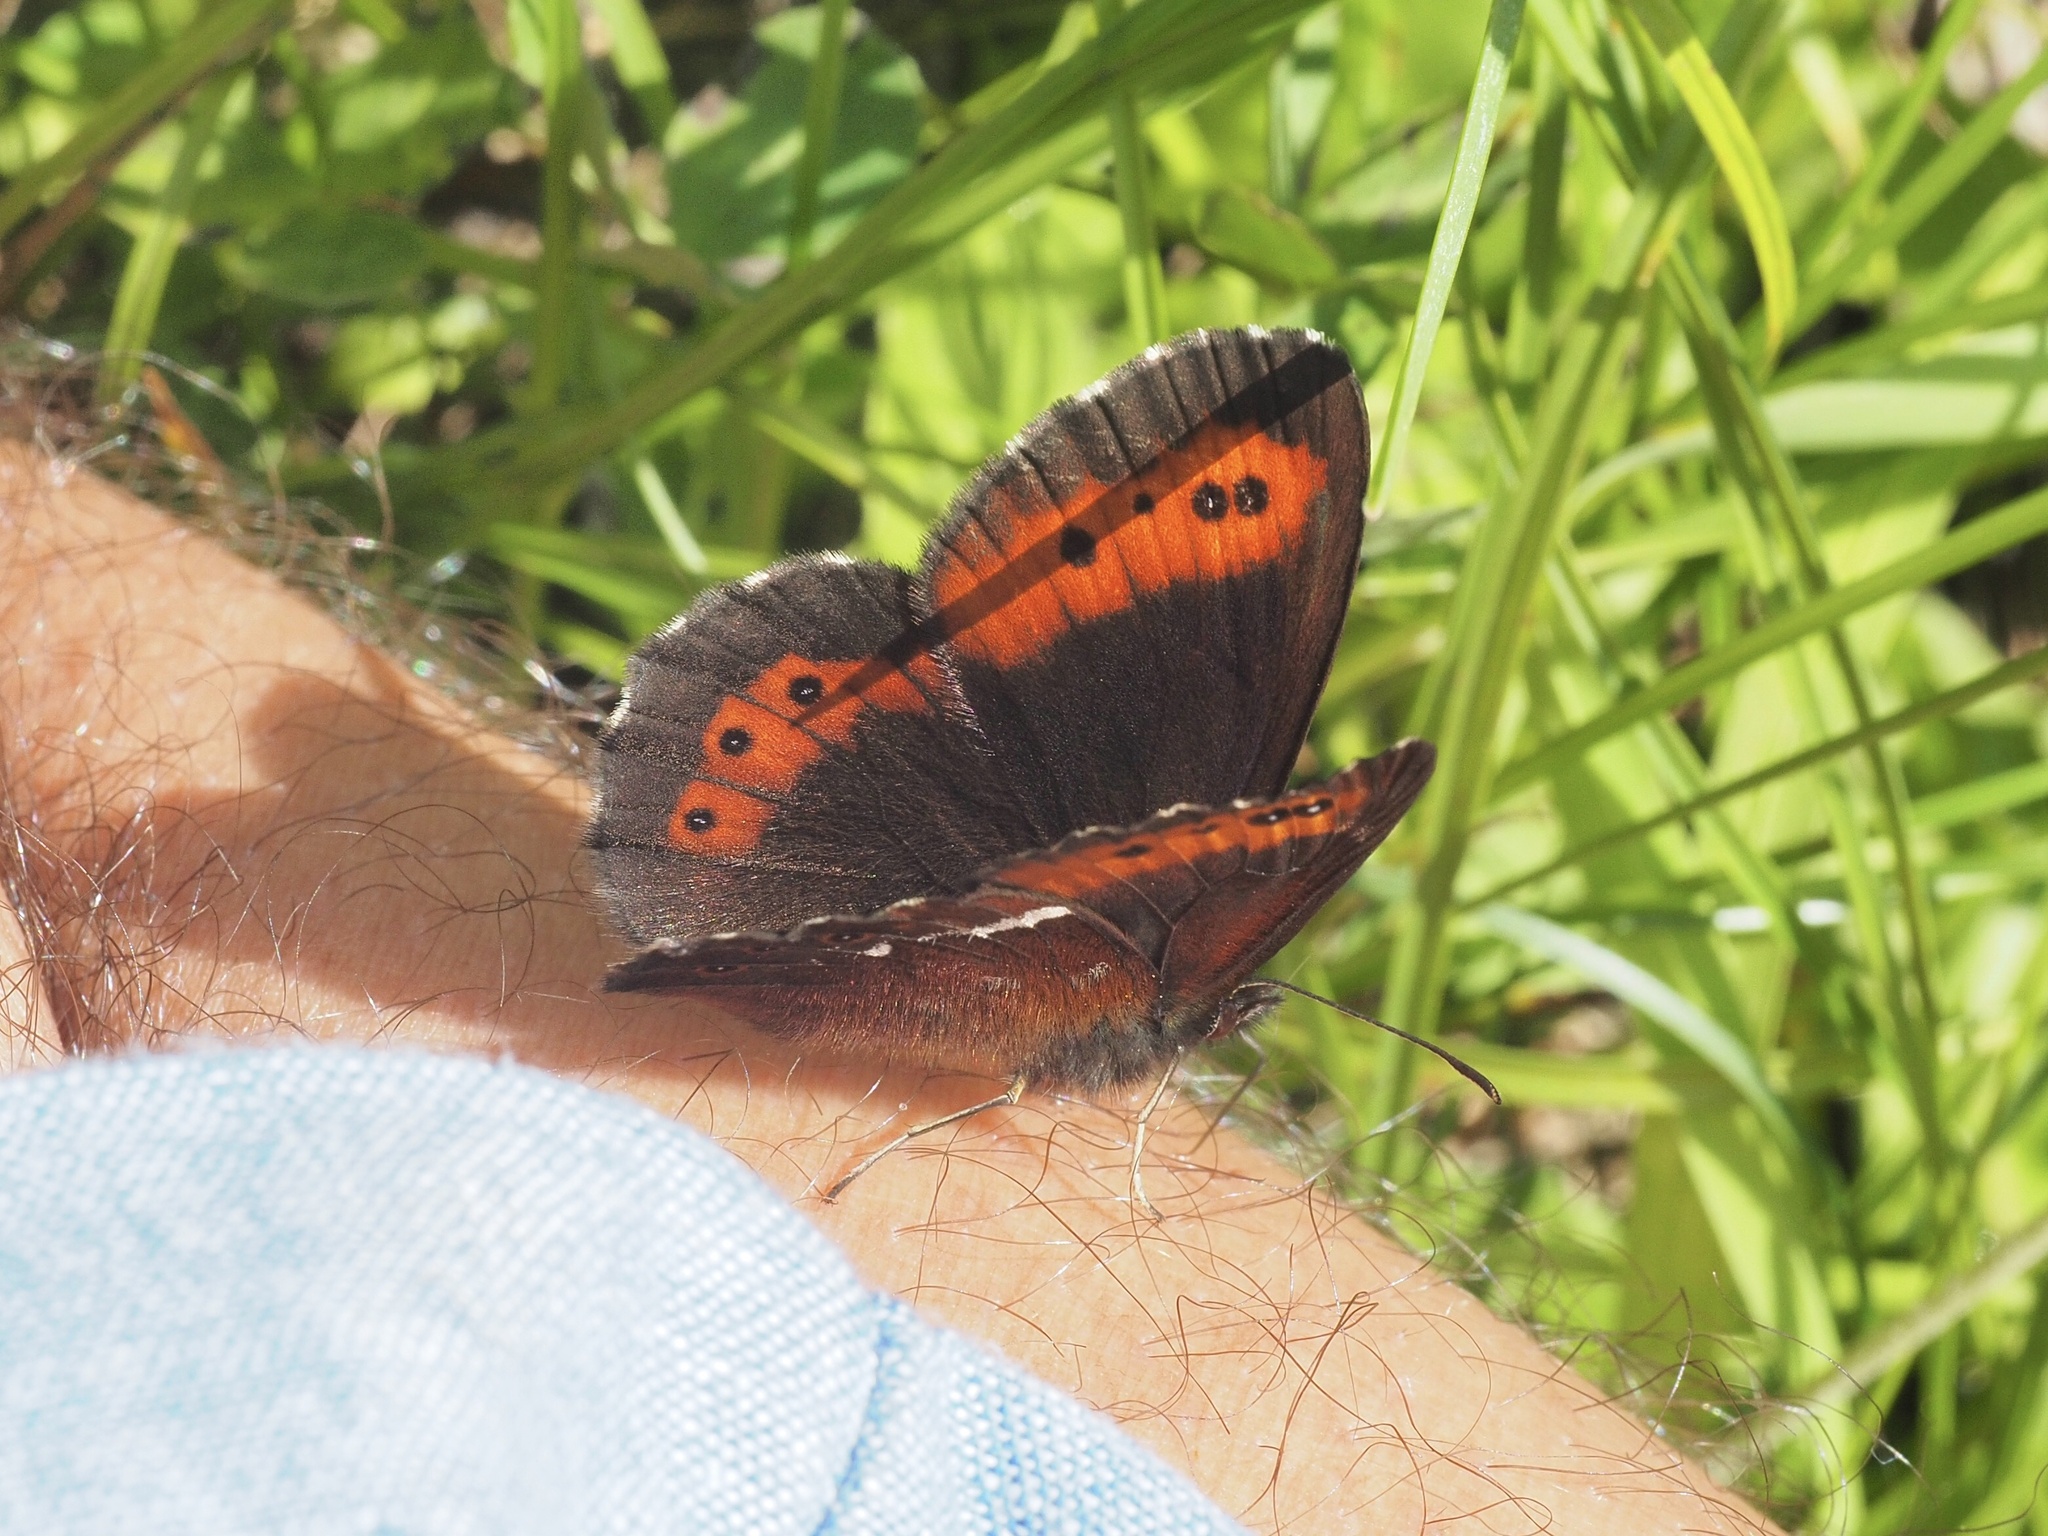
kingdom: Animalia
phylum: Arthropoda
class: Insecta
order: Lepidoptera
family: Nymphalidae
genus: Erebia
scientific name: Erebia ligea
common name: Arran brown
